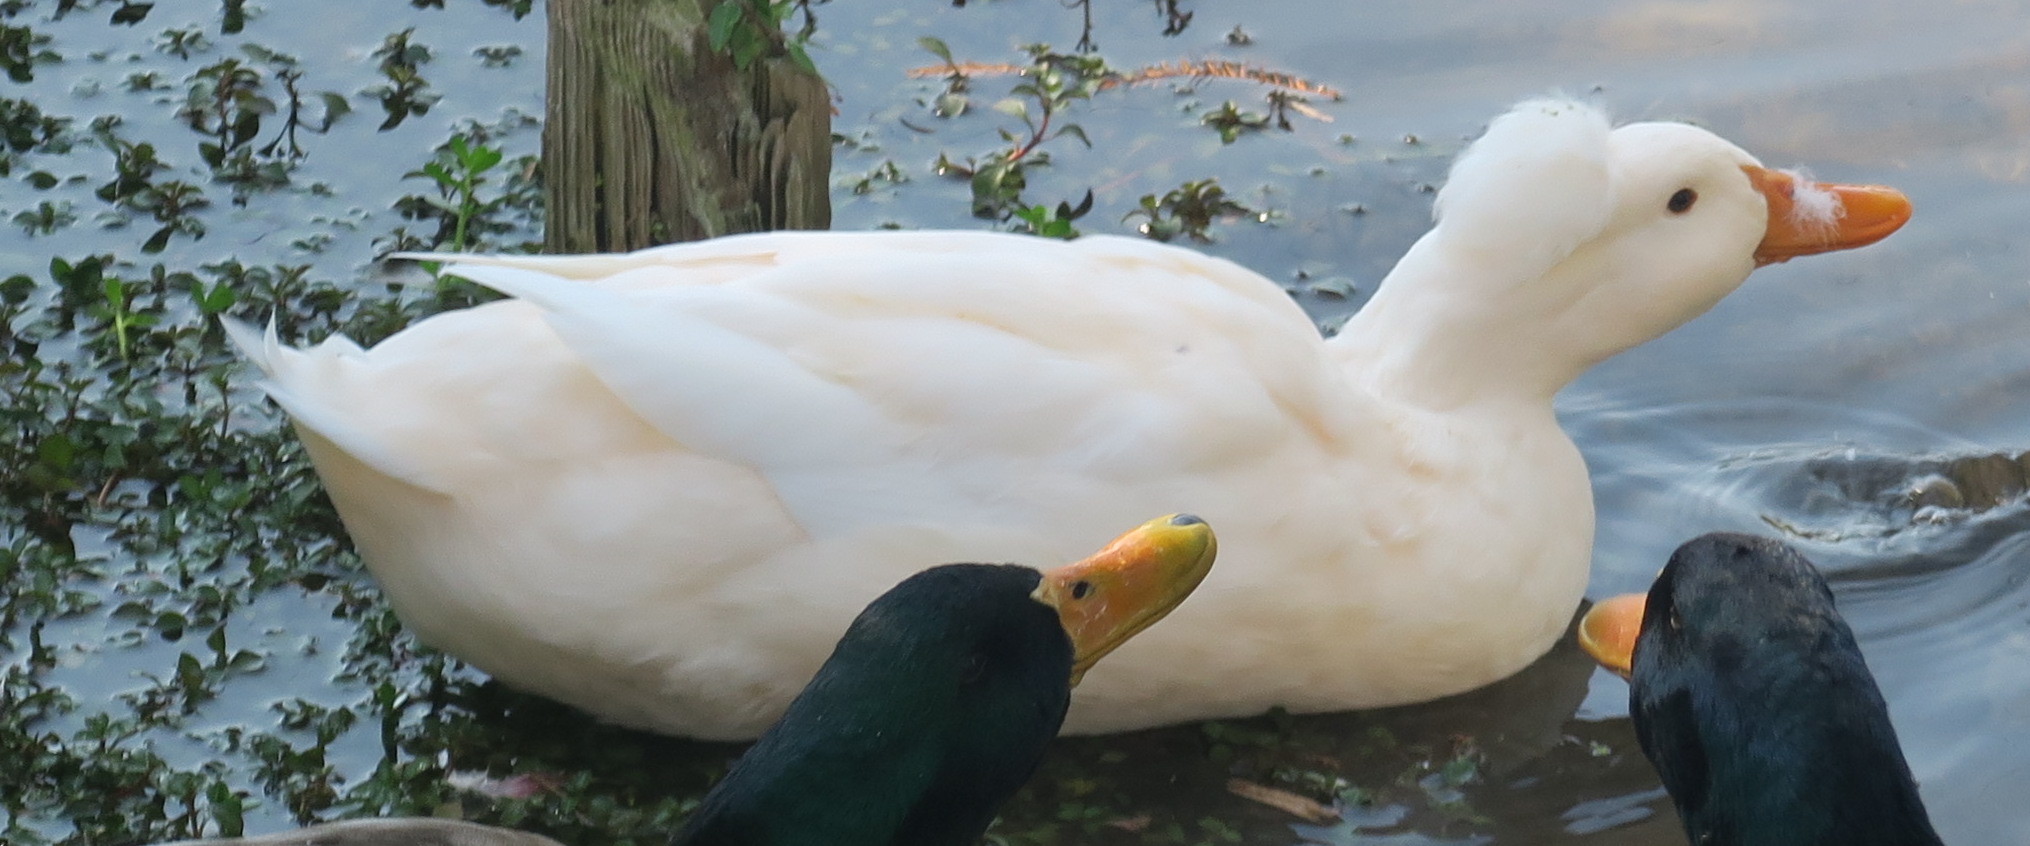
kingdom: Animalia
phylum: Chordata
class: Aves
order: Anseriformes
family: Anatidae
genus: Anas
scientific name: Anas platyrhynchos
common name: Mallard
